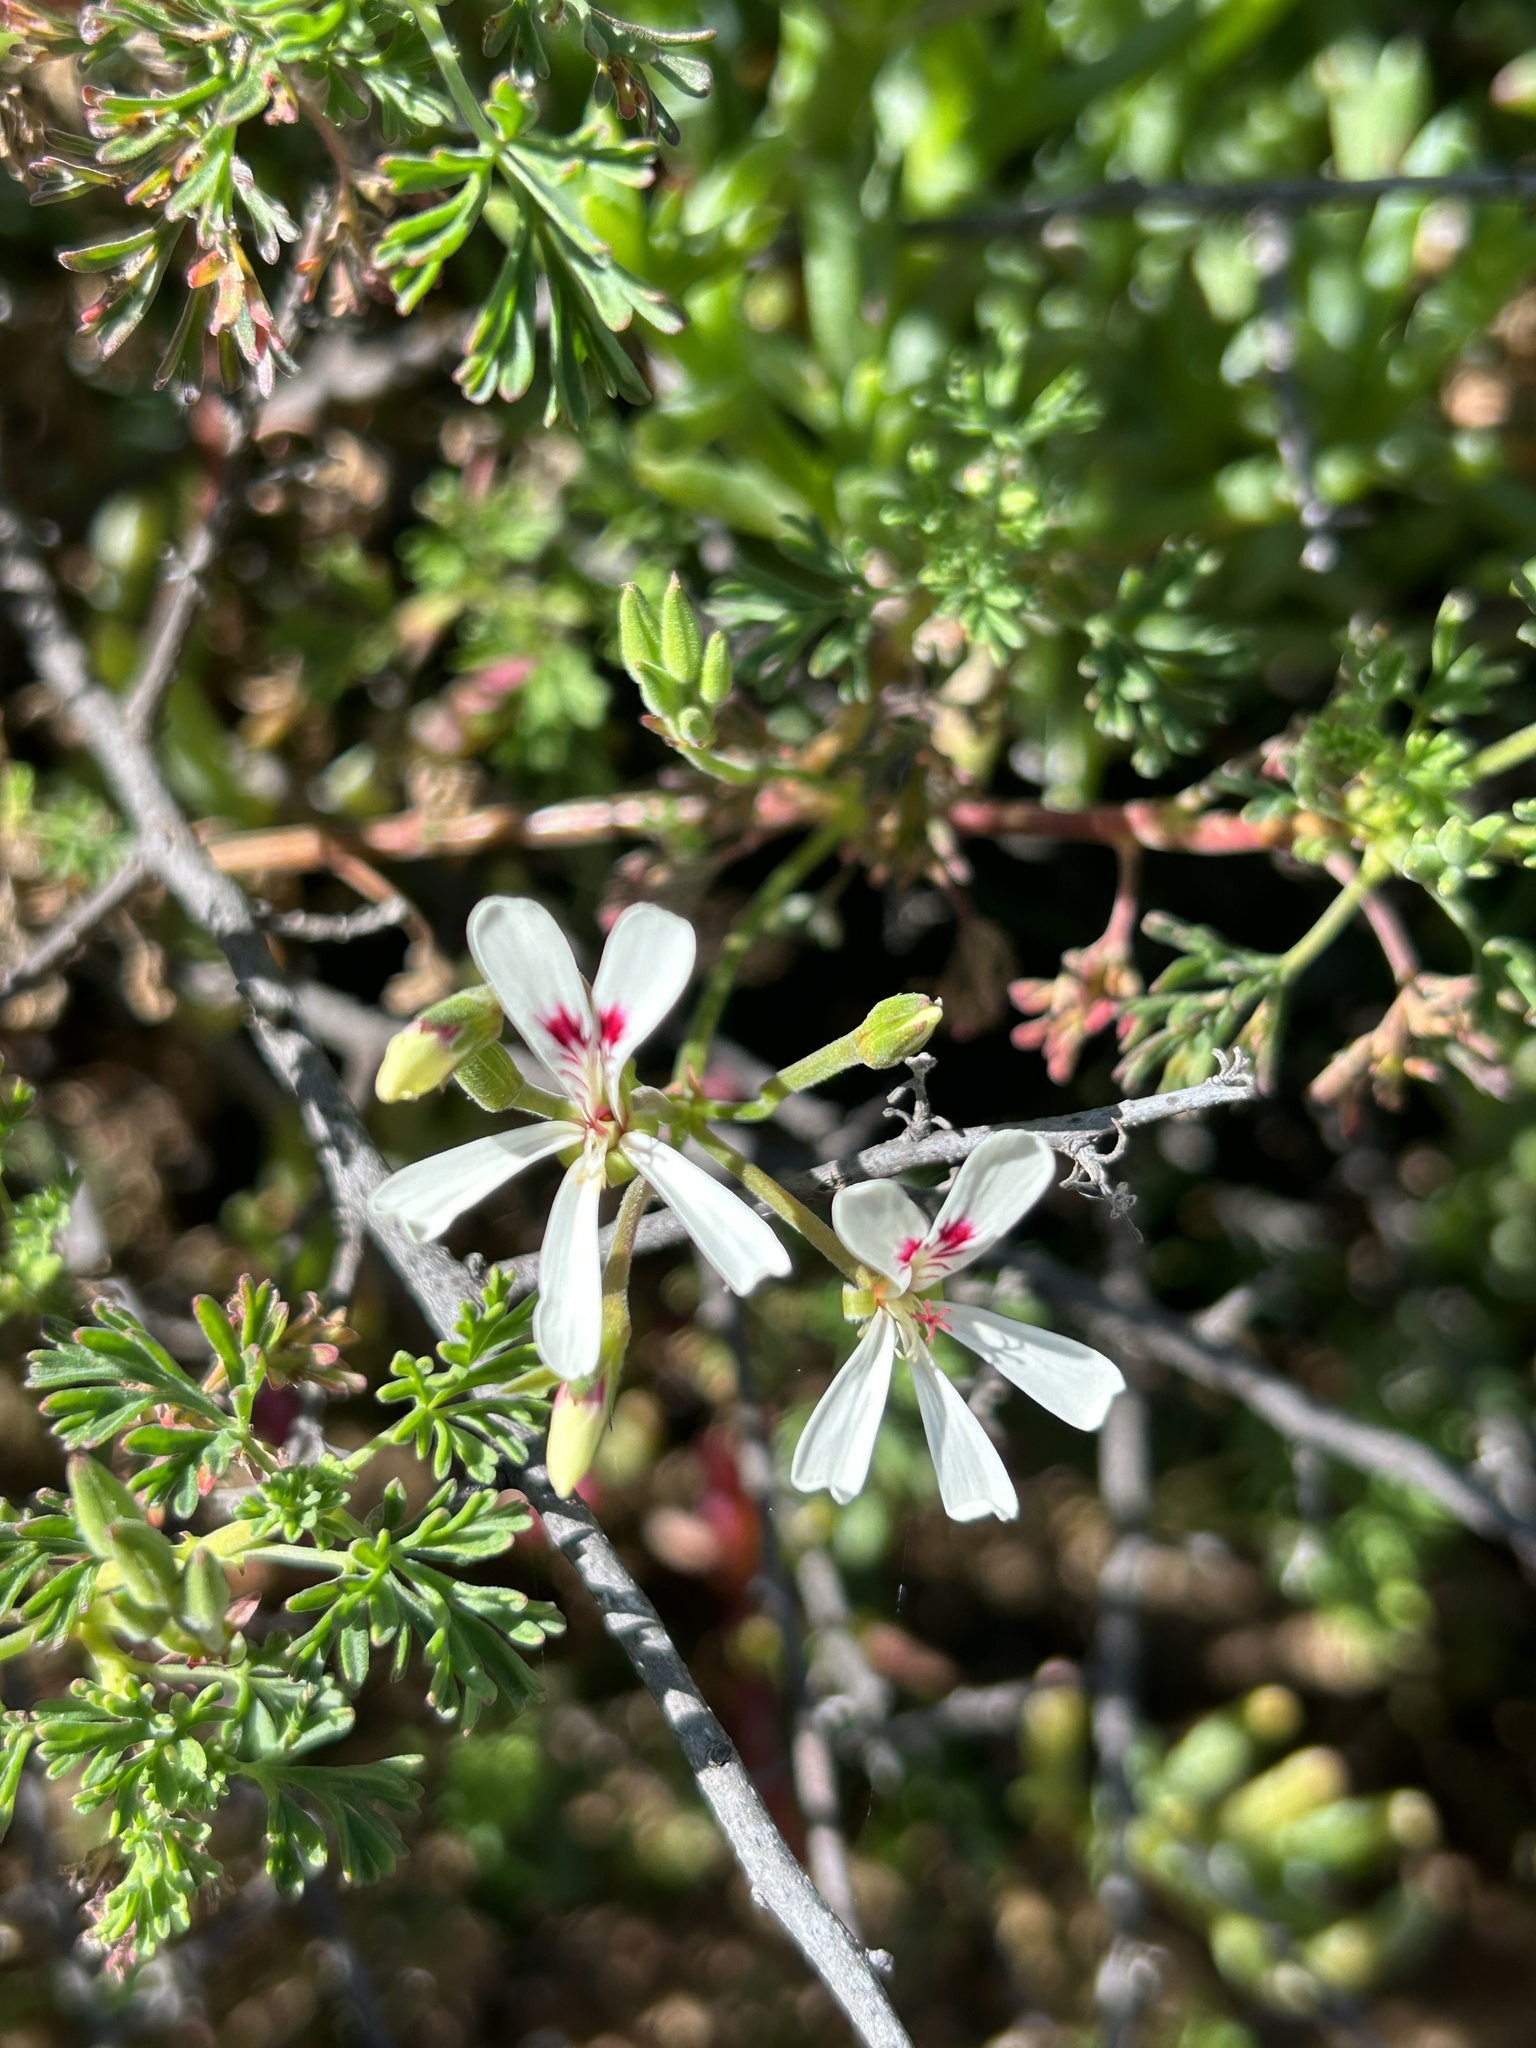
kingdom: Plantae
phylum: Tracheophyta
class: Magnoliopsida
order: Geraniales
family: Geraniaceae
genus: Pelargonium
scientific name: Pelargonium abrotanifolium
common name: Southernwood geranium
